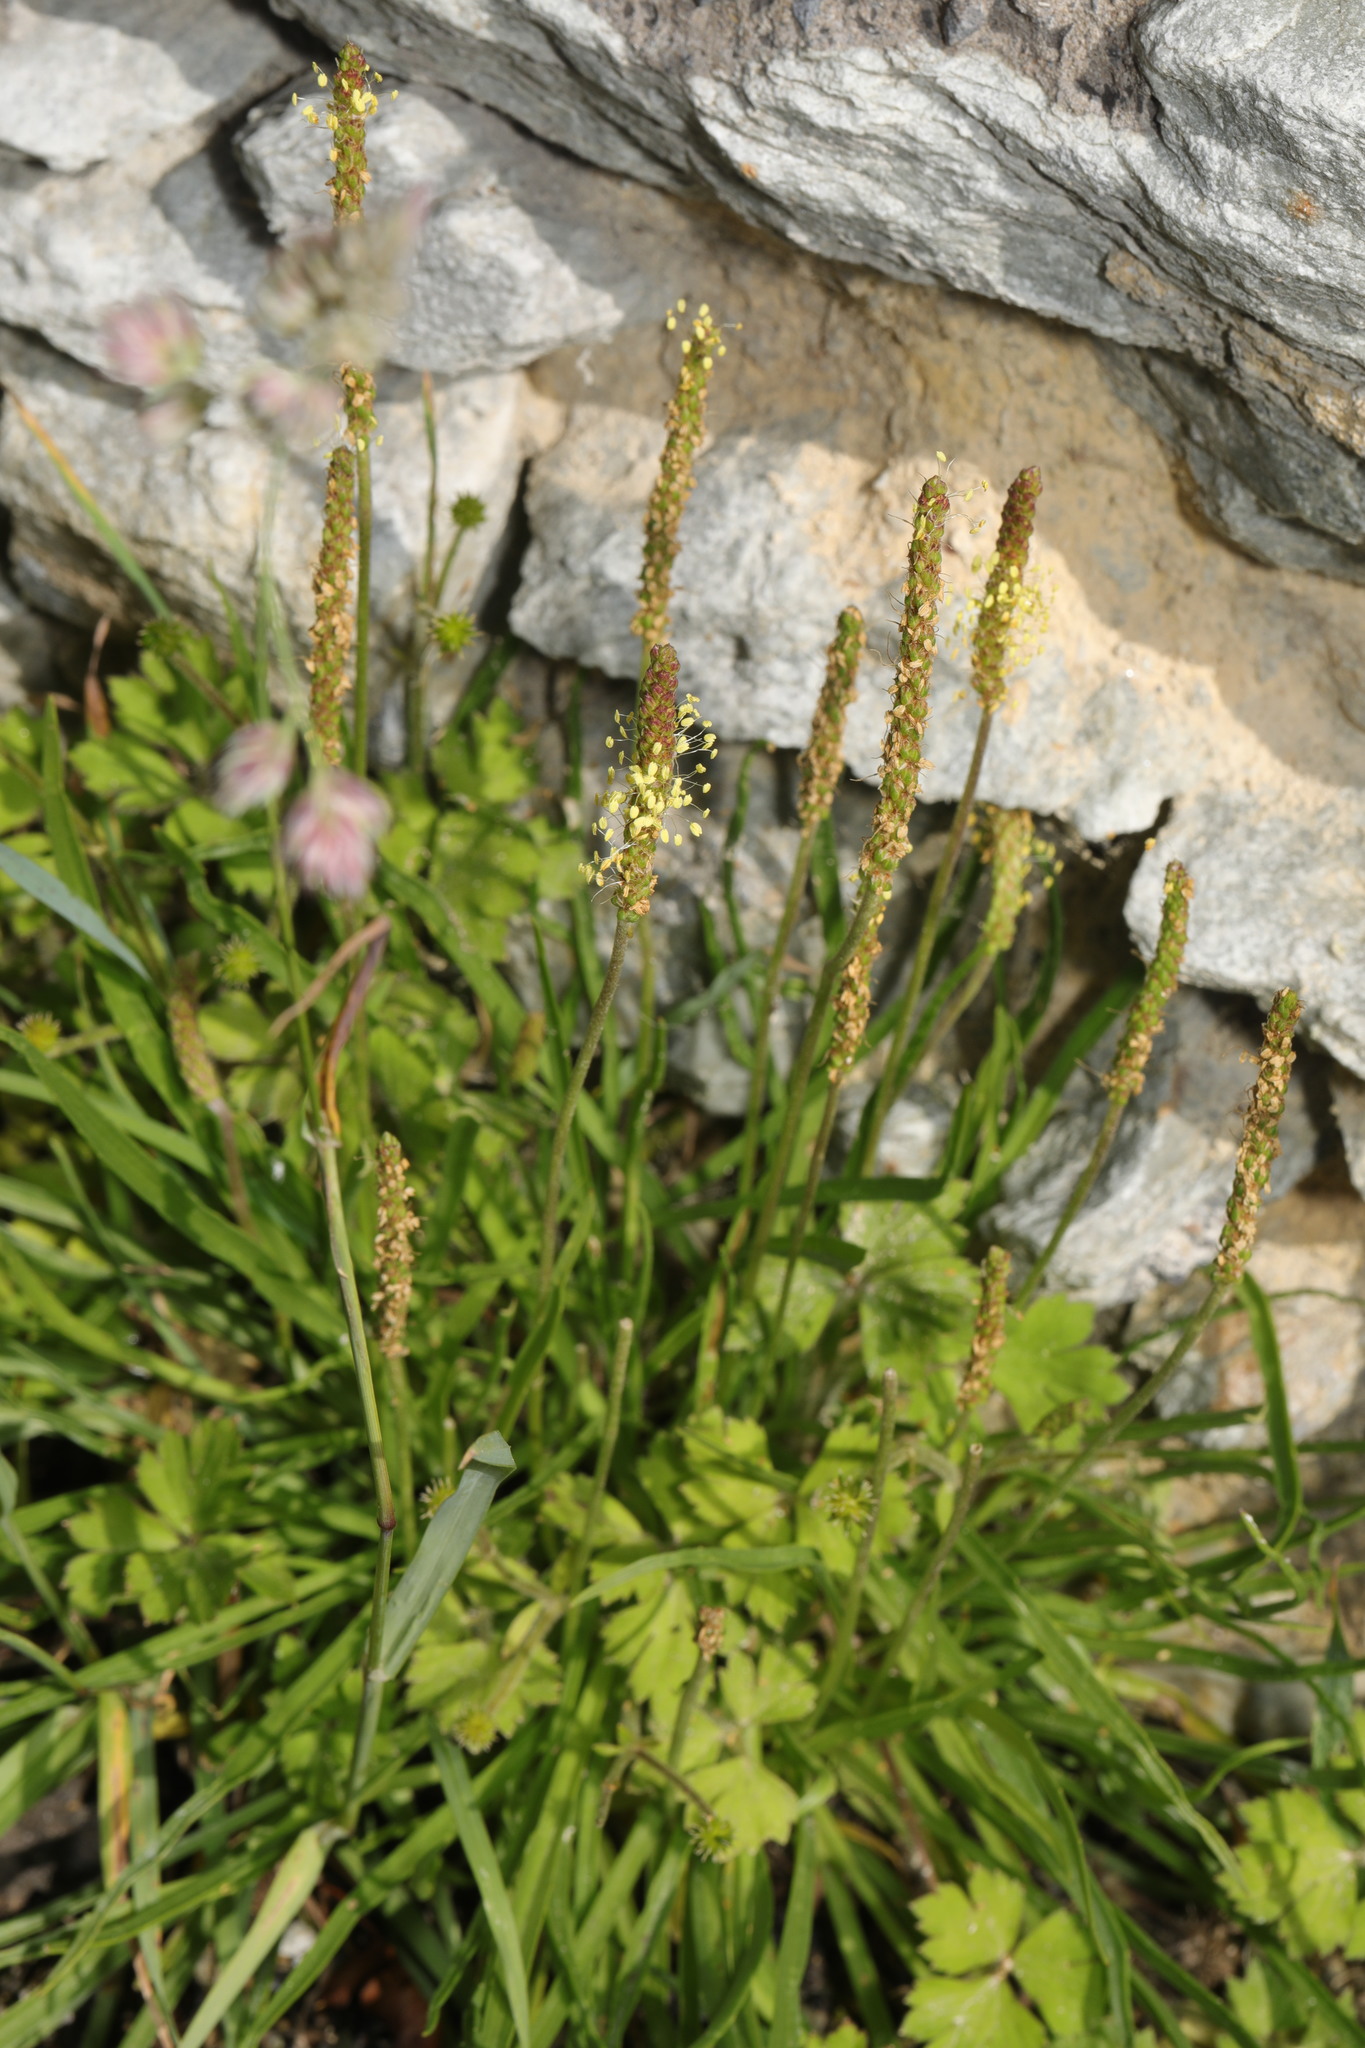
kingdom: Plantae
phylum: Tracheophyta
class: Magnoliopsida
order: Lamiales
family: Plantaginaceae
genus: Plantago
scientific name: Plantago maritima
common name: Sea plantain
